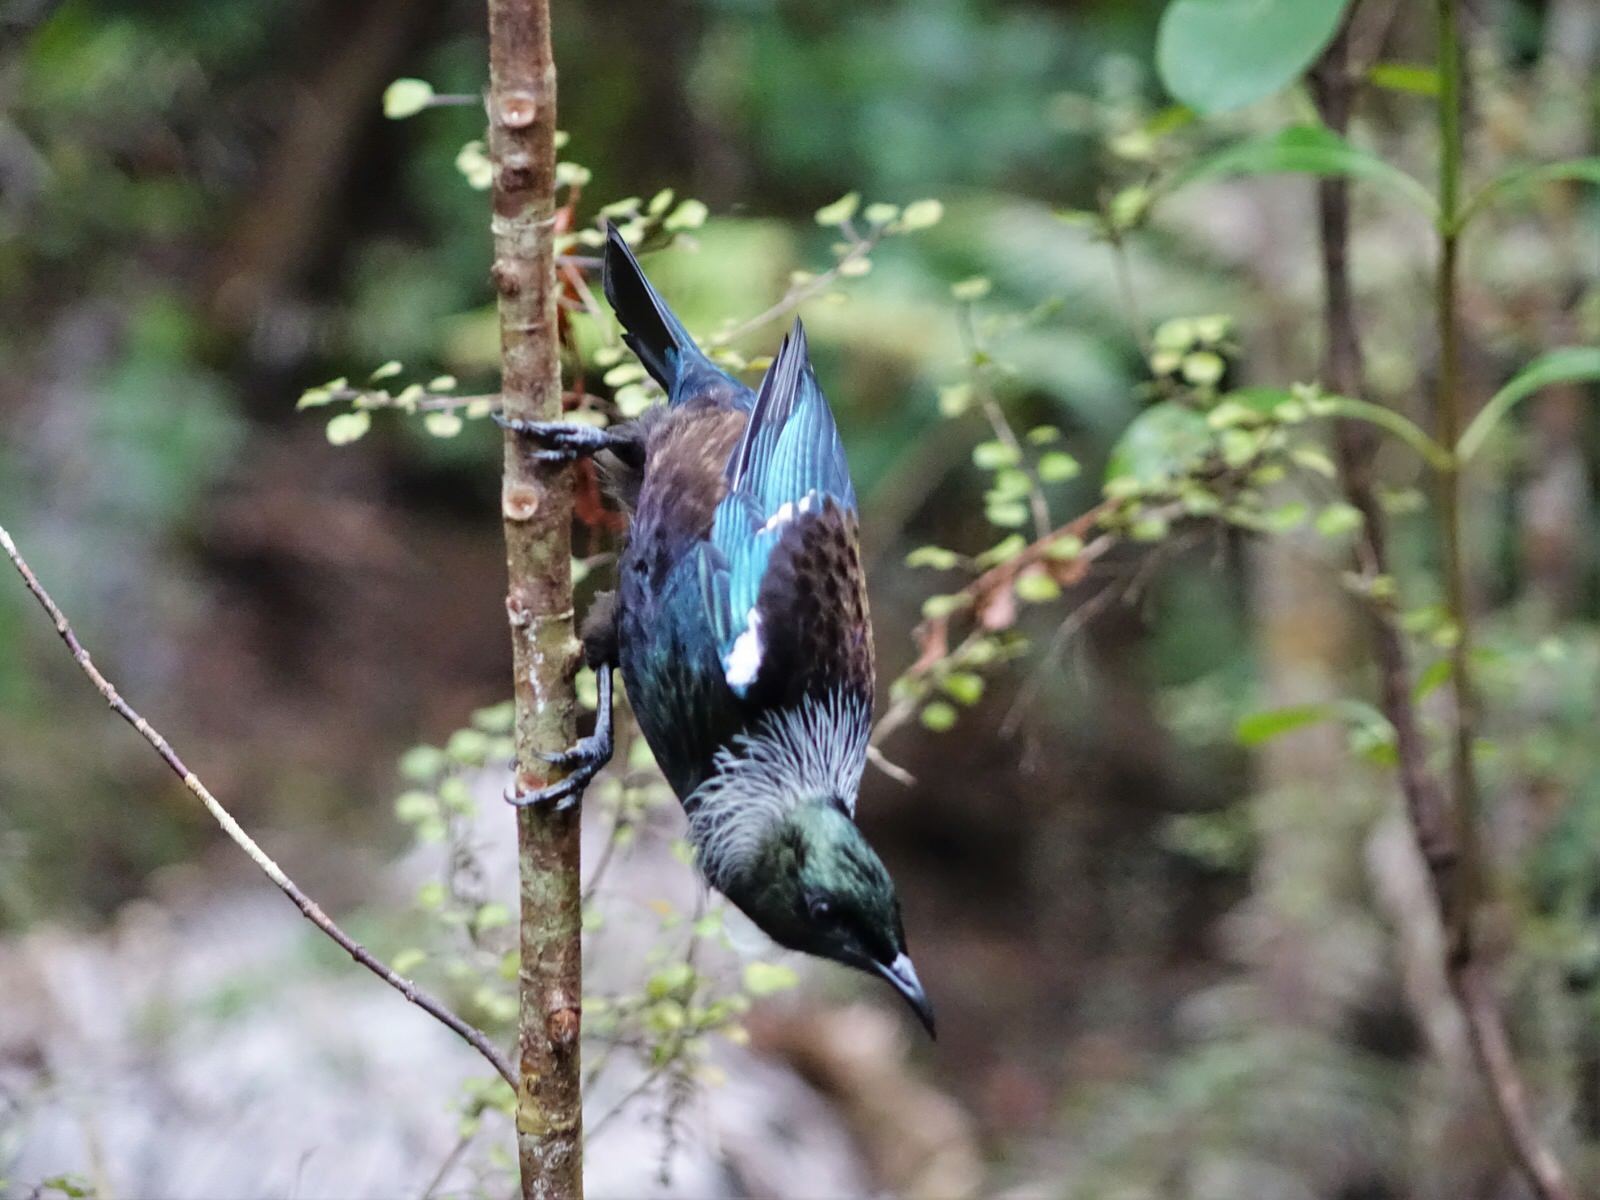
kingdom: Animalia
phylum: Chordata
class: Aves
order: Passeriformes
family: Meliphagidae
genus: Prosthemadera
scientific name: Prosthemadera novaeseelandiae
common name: Tui
